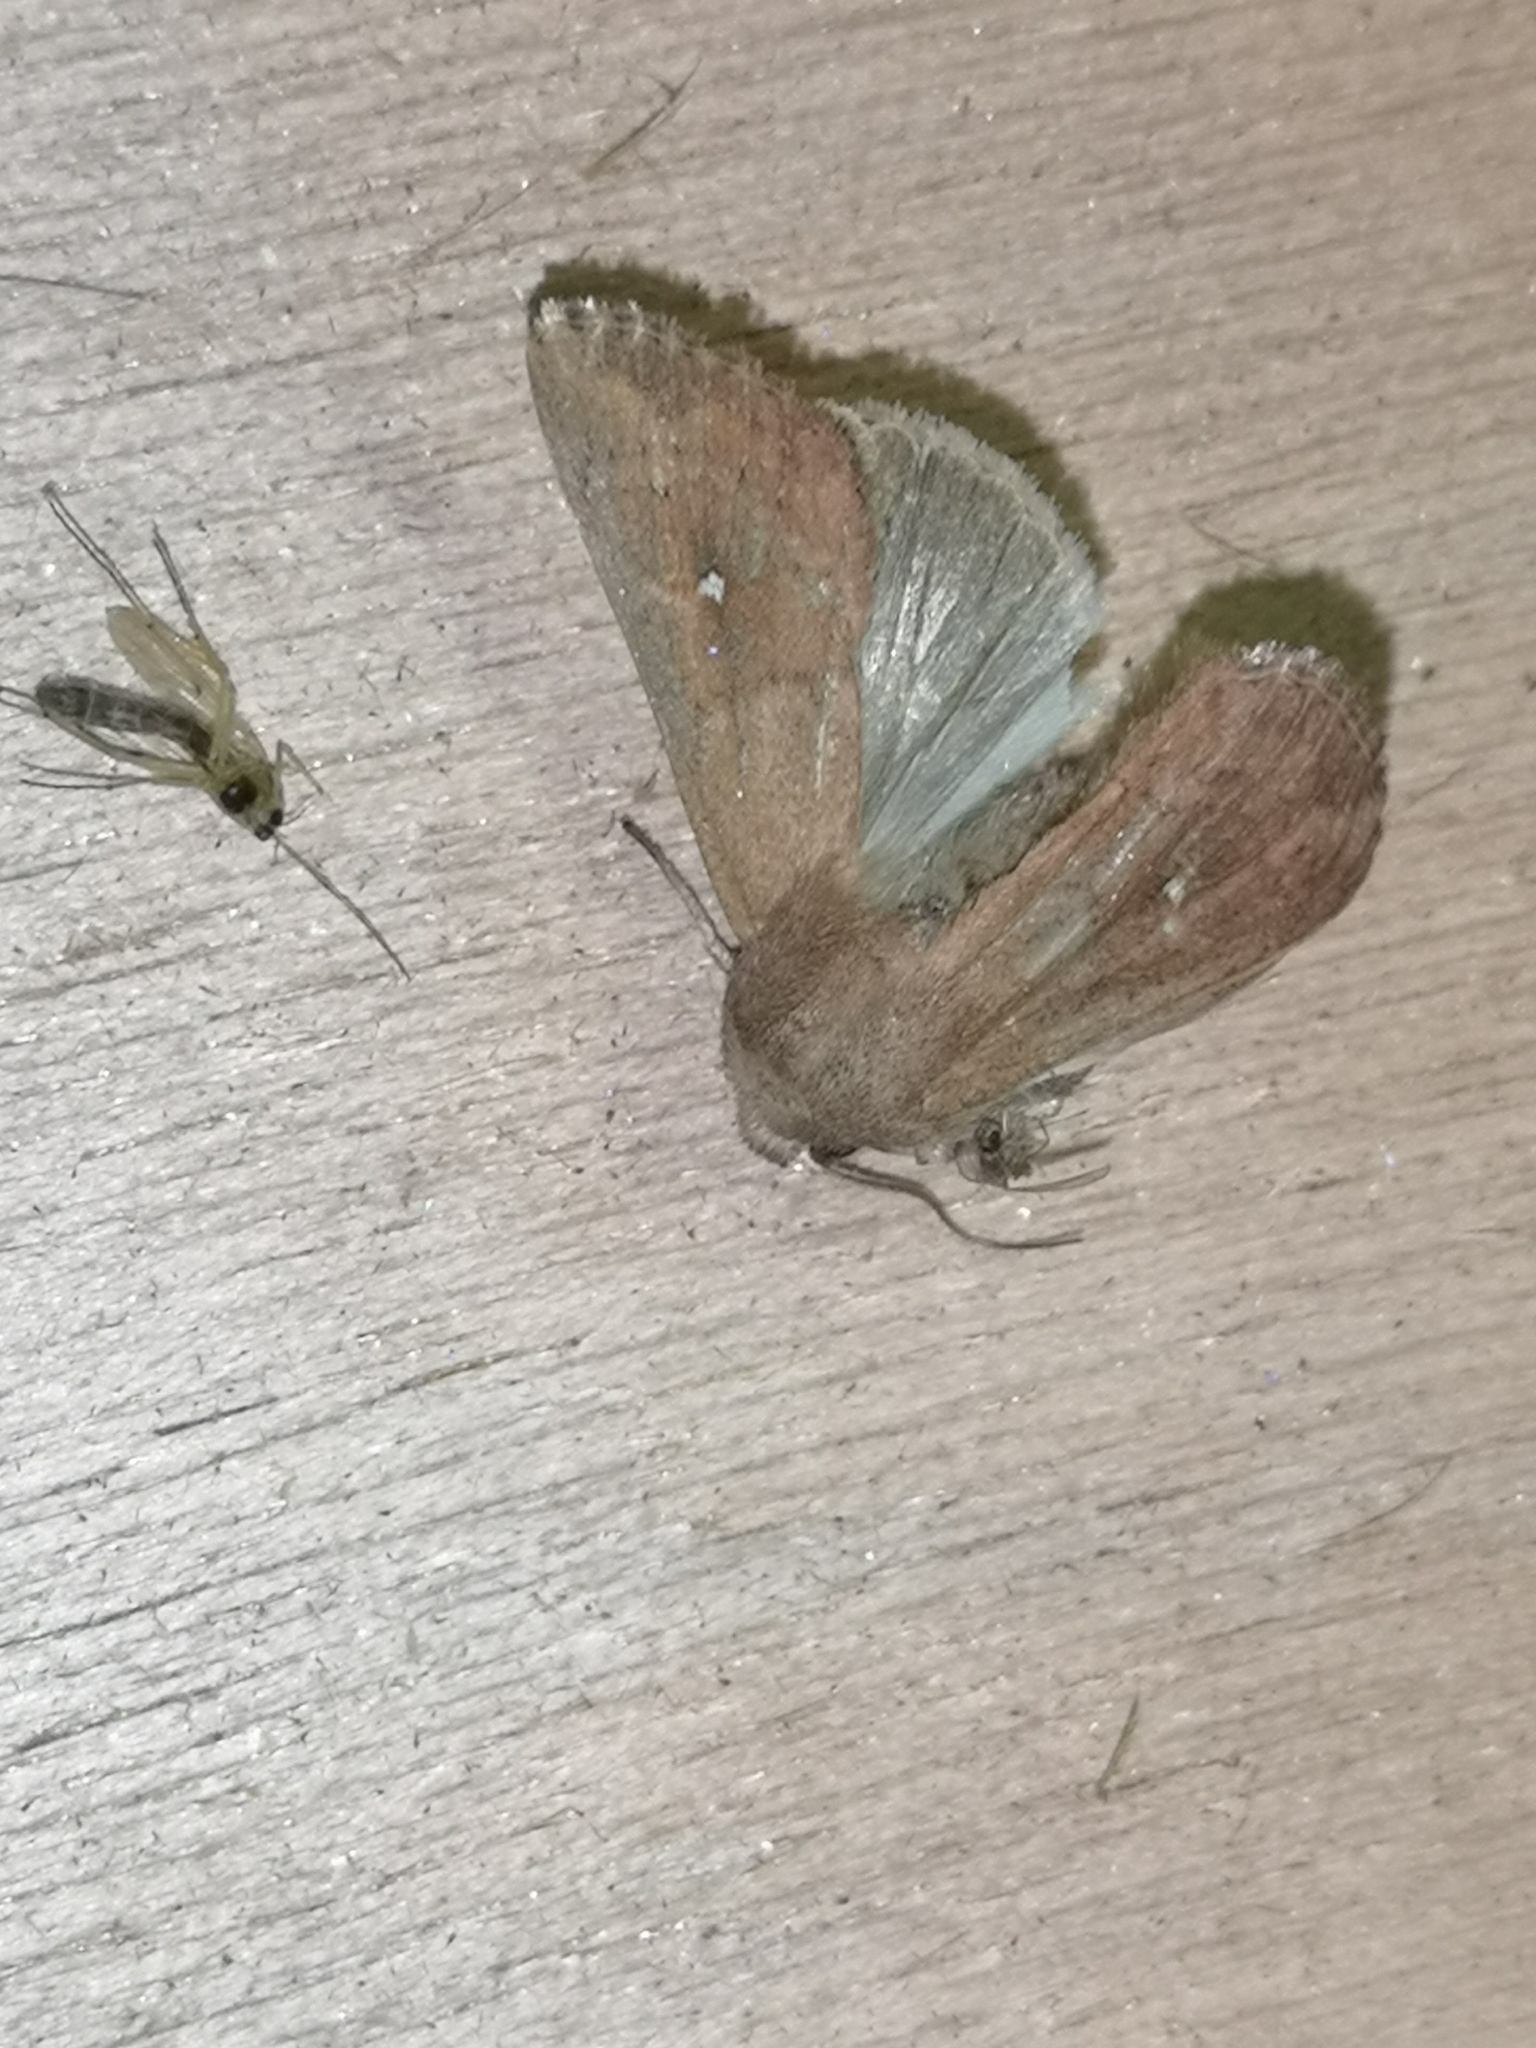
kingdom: Animalia
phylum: Arthropoda
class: Insecta
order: Lepidoptera
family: Noctuidae
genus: Mythimna
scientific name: Mythimna albipuncta
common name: White-point
